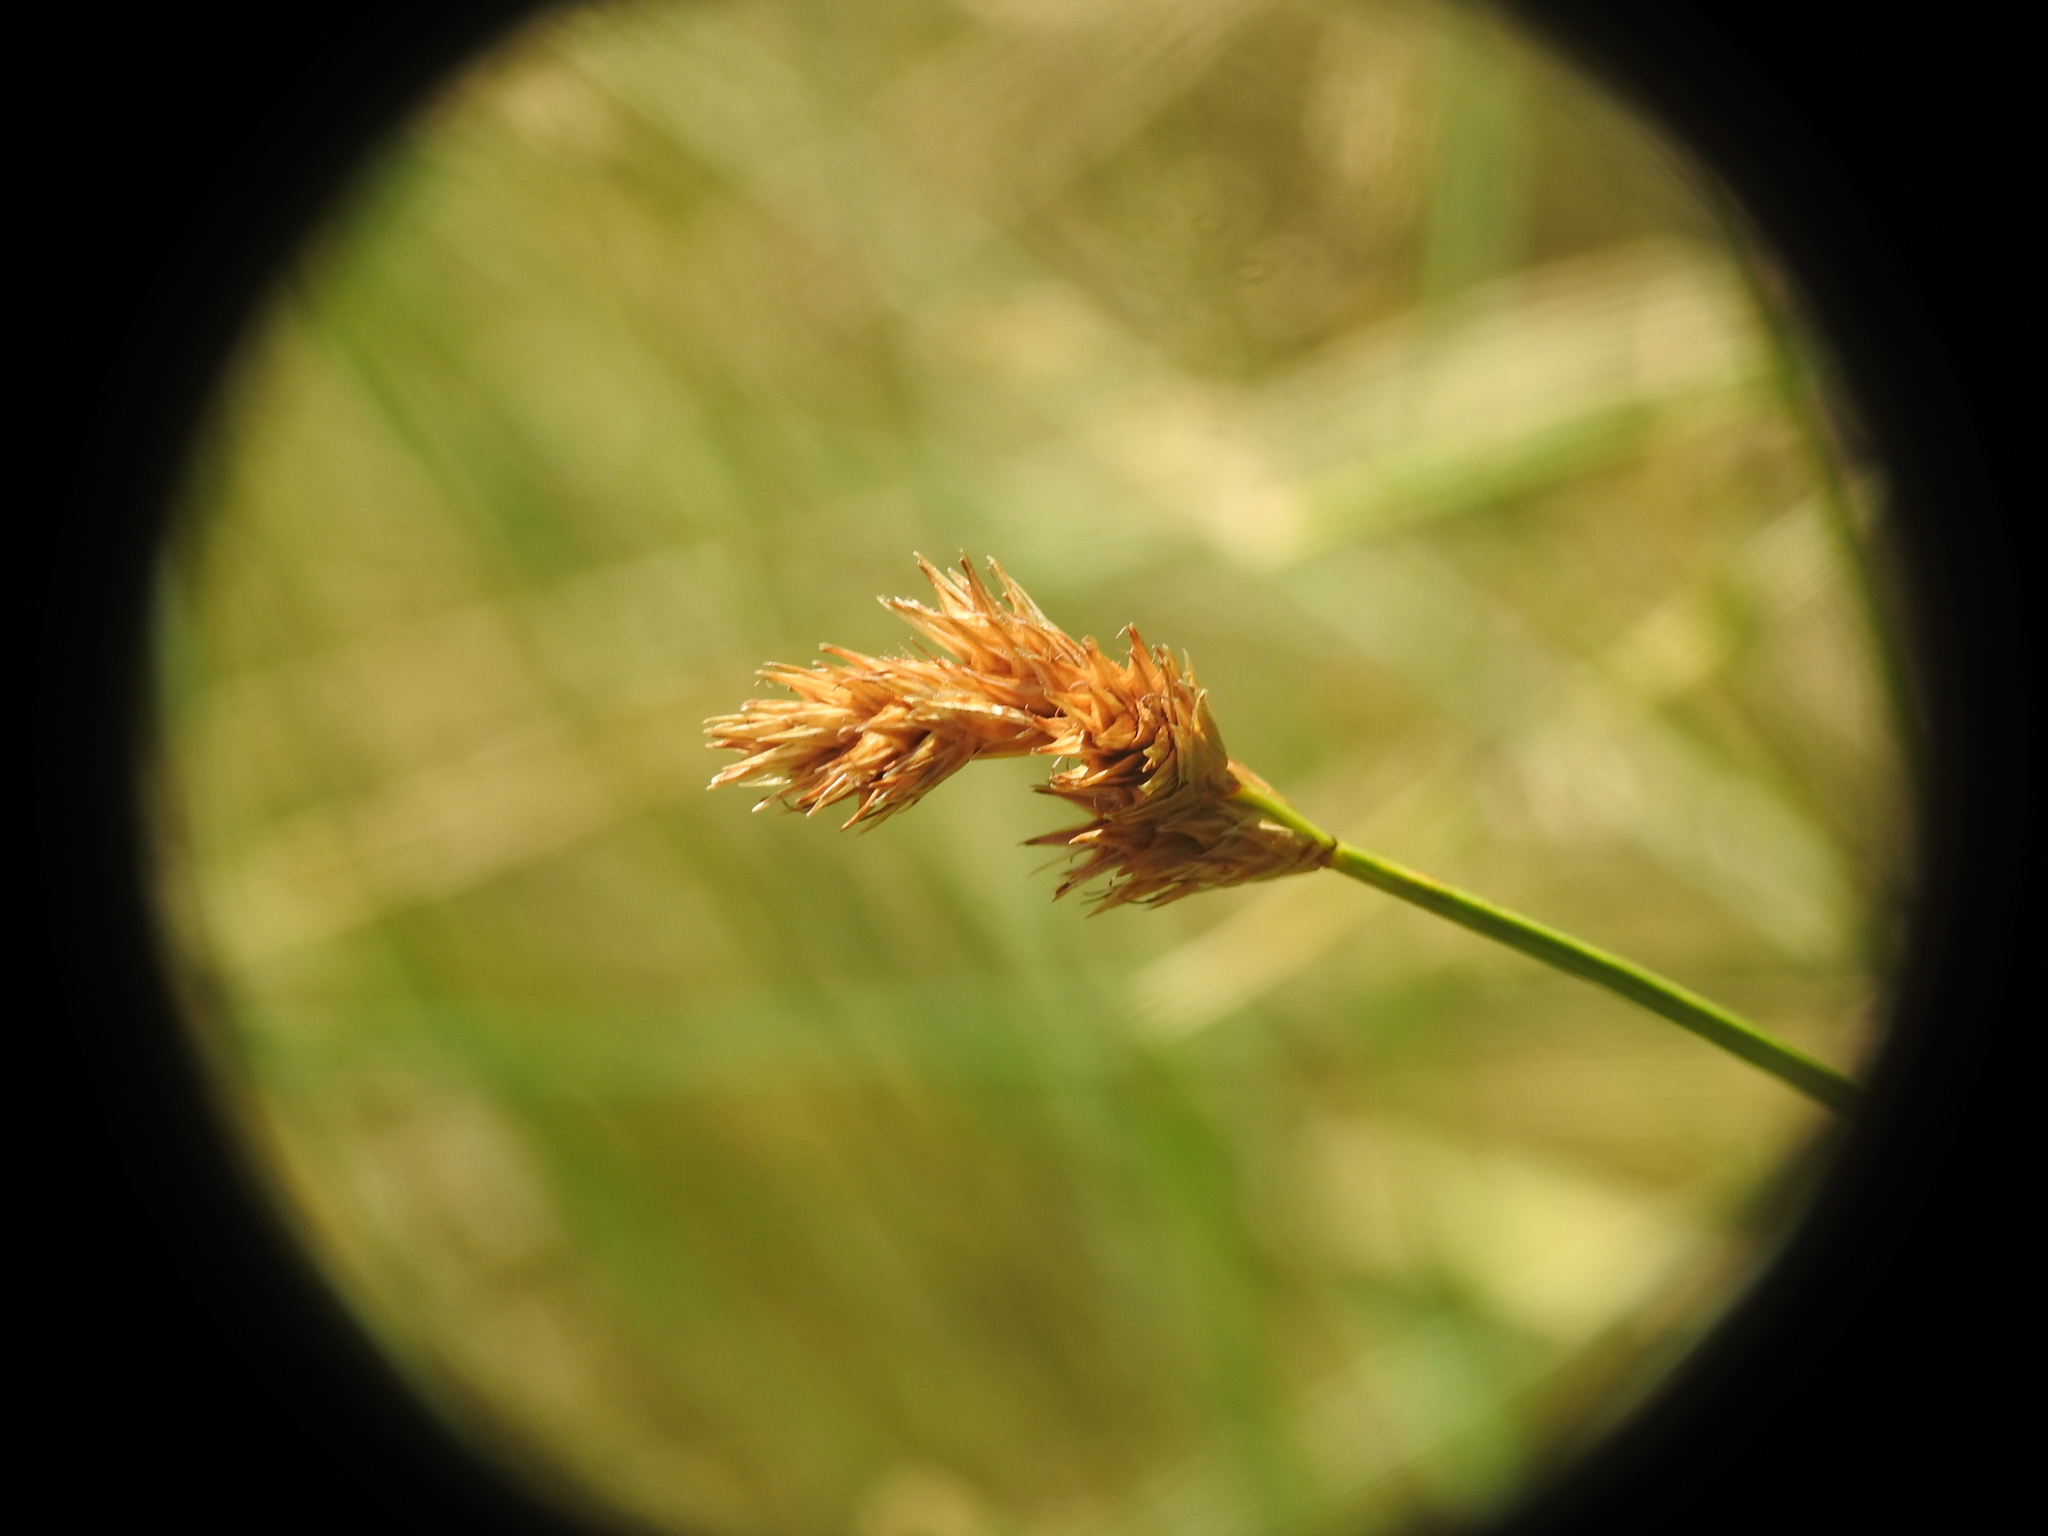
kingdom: Plantae
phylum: Tracheophyta
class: Liliopsida
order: Poales
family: Cyperaceae
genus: Carex
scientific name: Carex leporina
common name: Oval sedge
